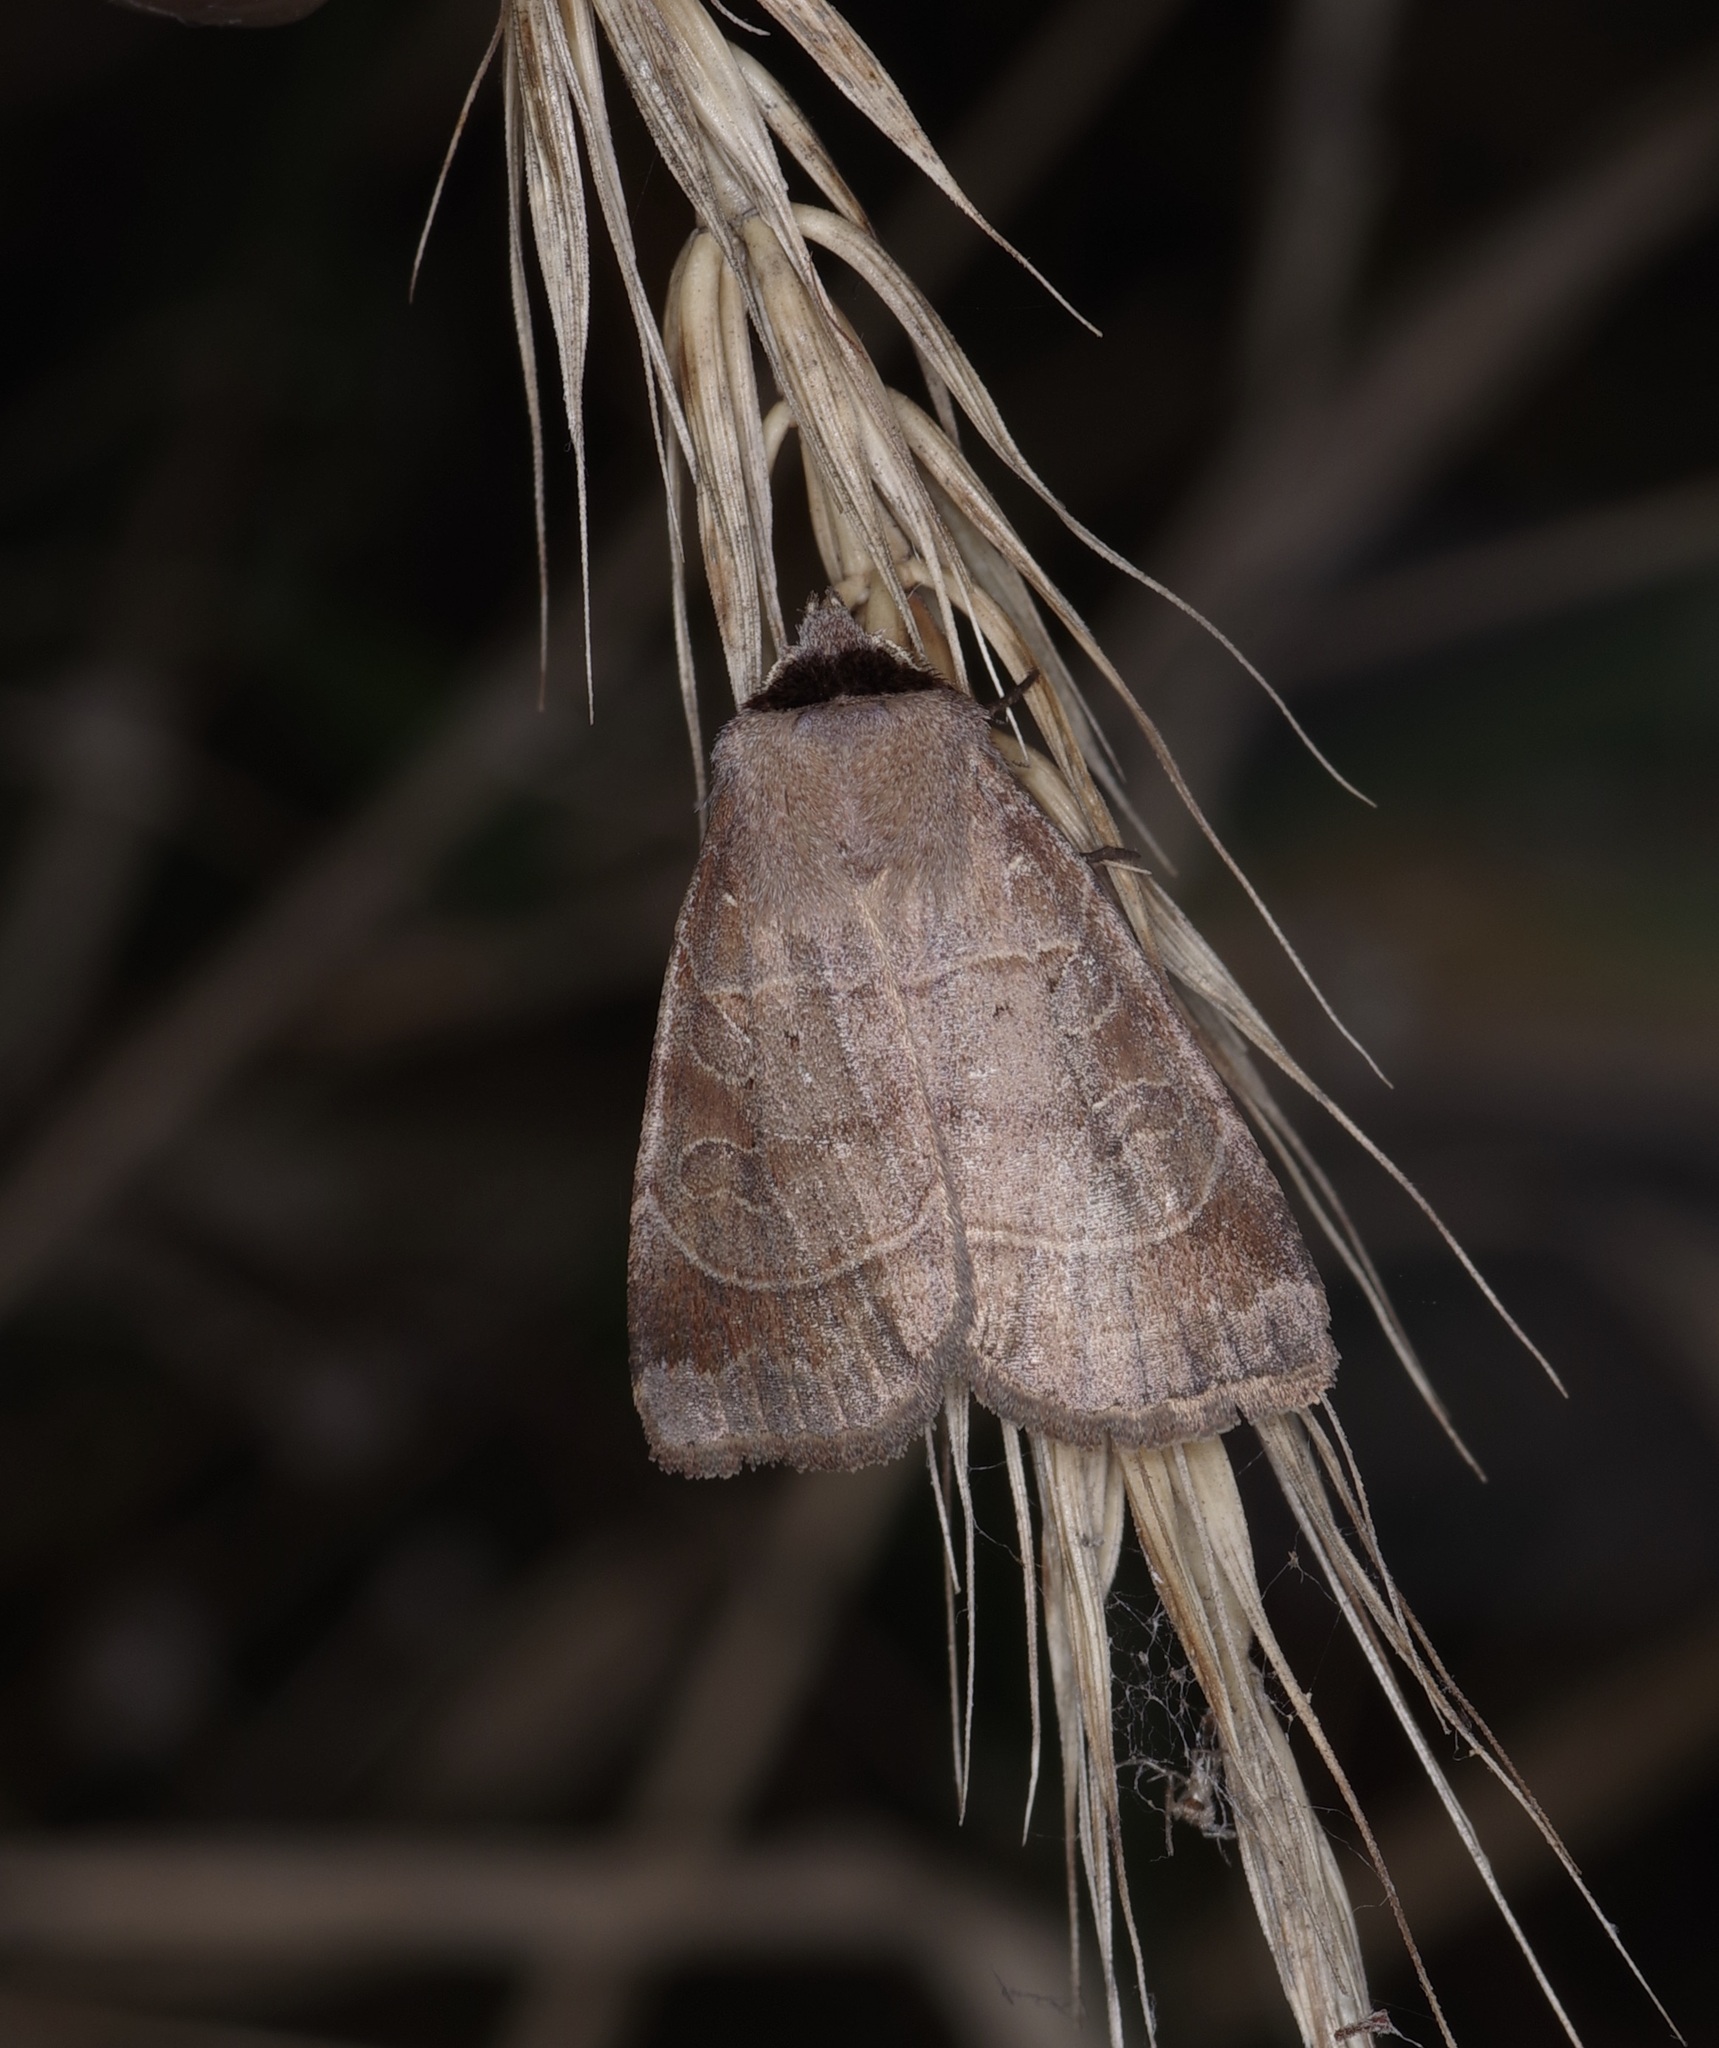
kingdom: Animalia
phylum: Arthropoda
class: Insecta
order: Lepidoptera
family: Noctuidae
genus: Agnorisma
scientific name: Agnorisma badinodis
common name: Pale-banded dart
